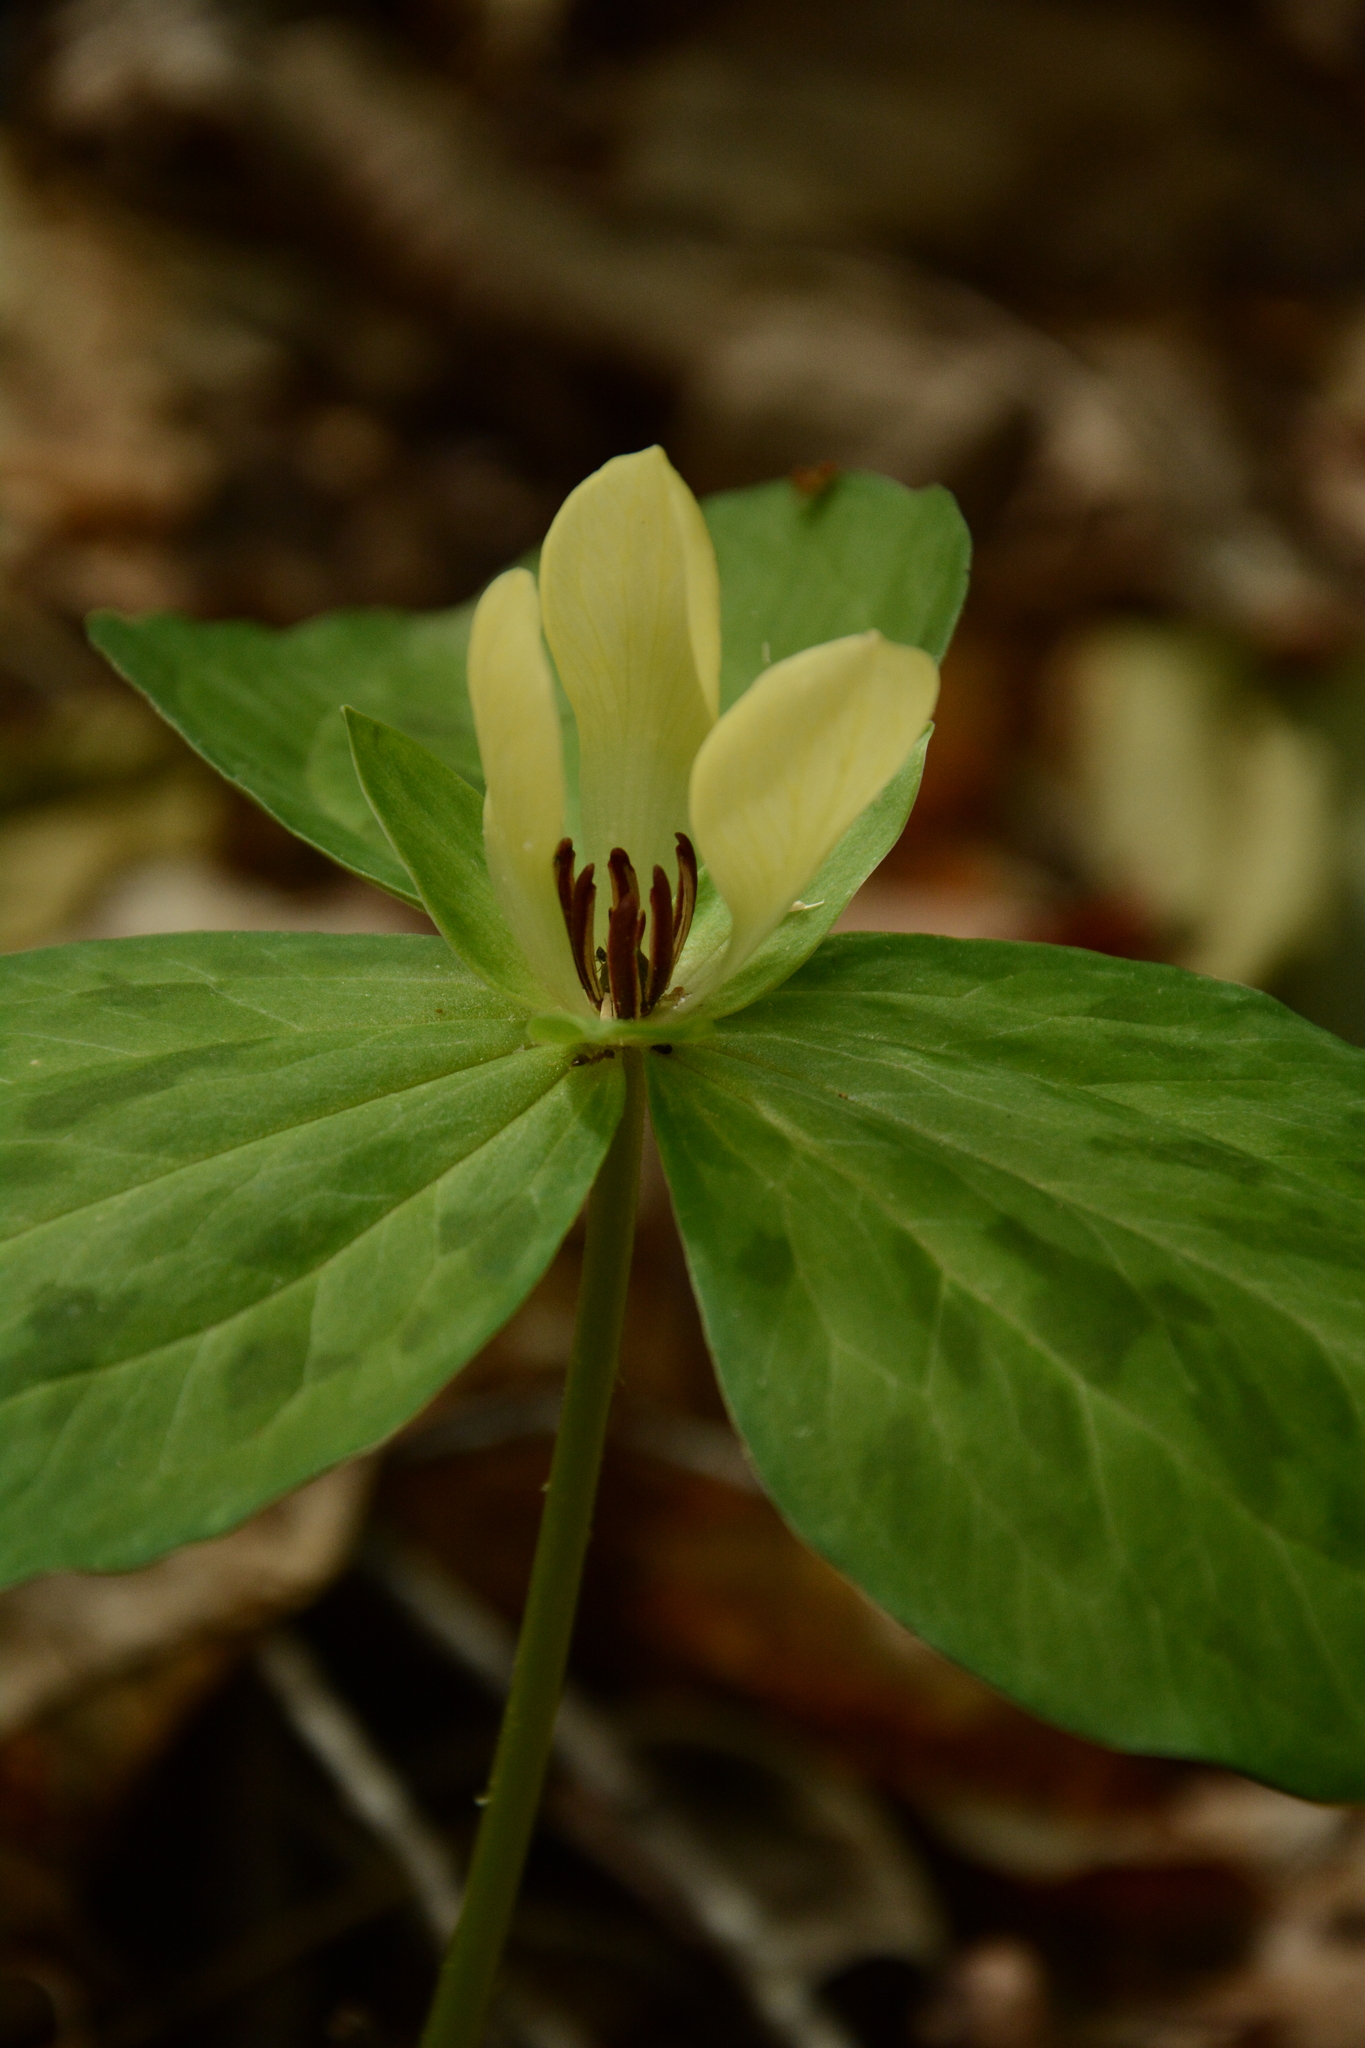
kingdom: Plantae
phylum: Tracheophyta
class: Liliopsida
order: Liliales
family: Melanthiaceae
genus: Trillium
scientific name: Trillium discolor
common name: Faded trillium
